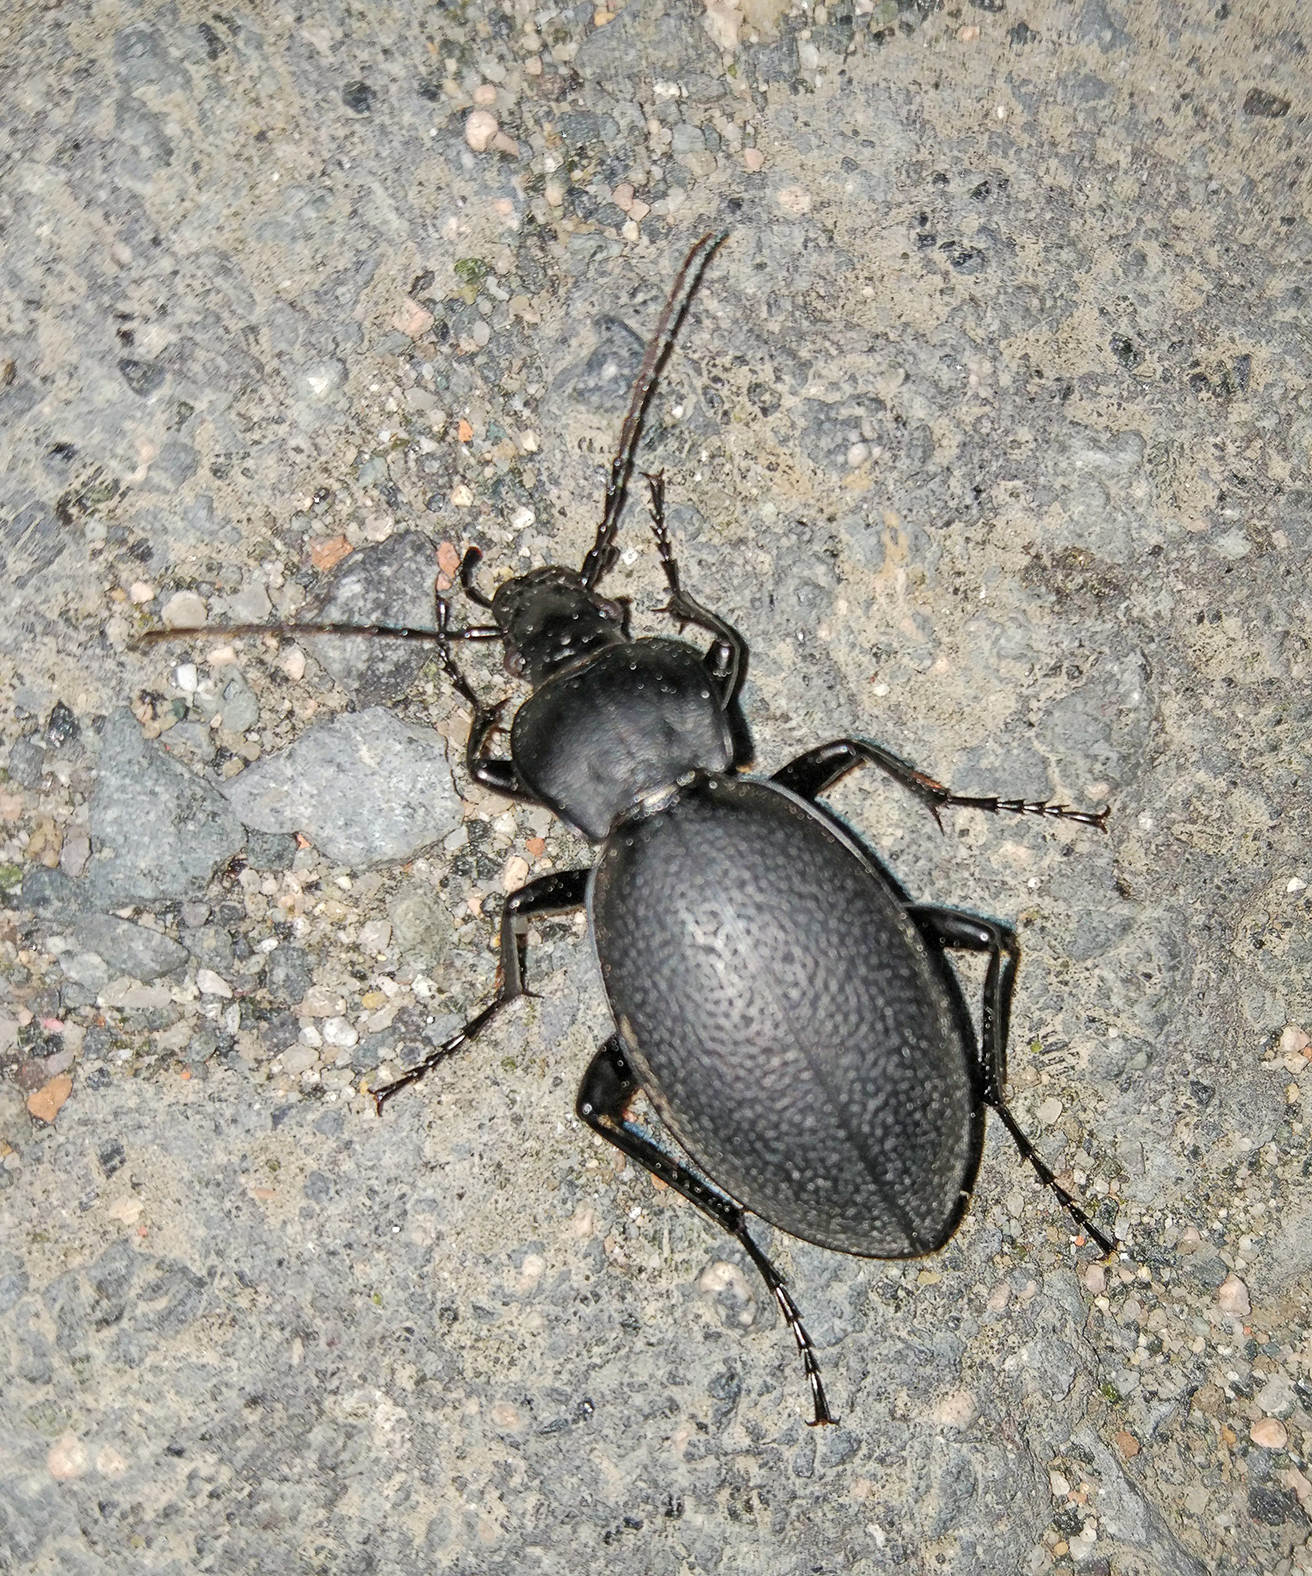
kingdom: Animalia
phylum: Arthropoda
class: Insecta
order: Coleoptera
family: Carabidae
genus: Carabus
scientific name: Carabus coriaceus
